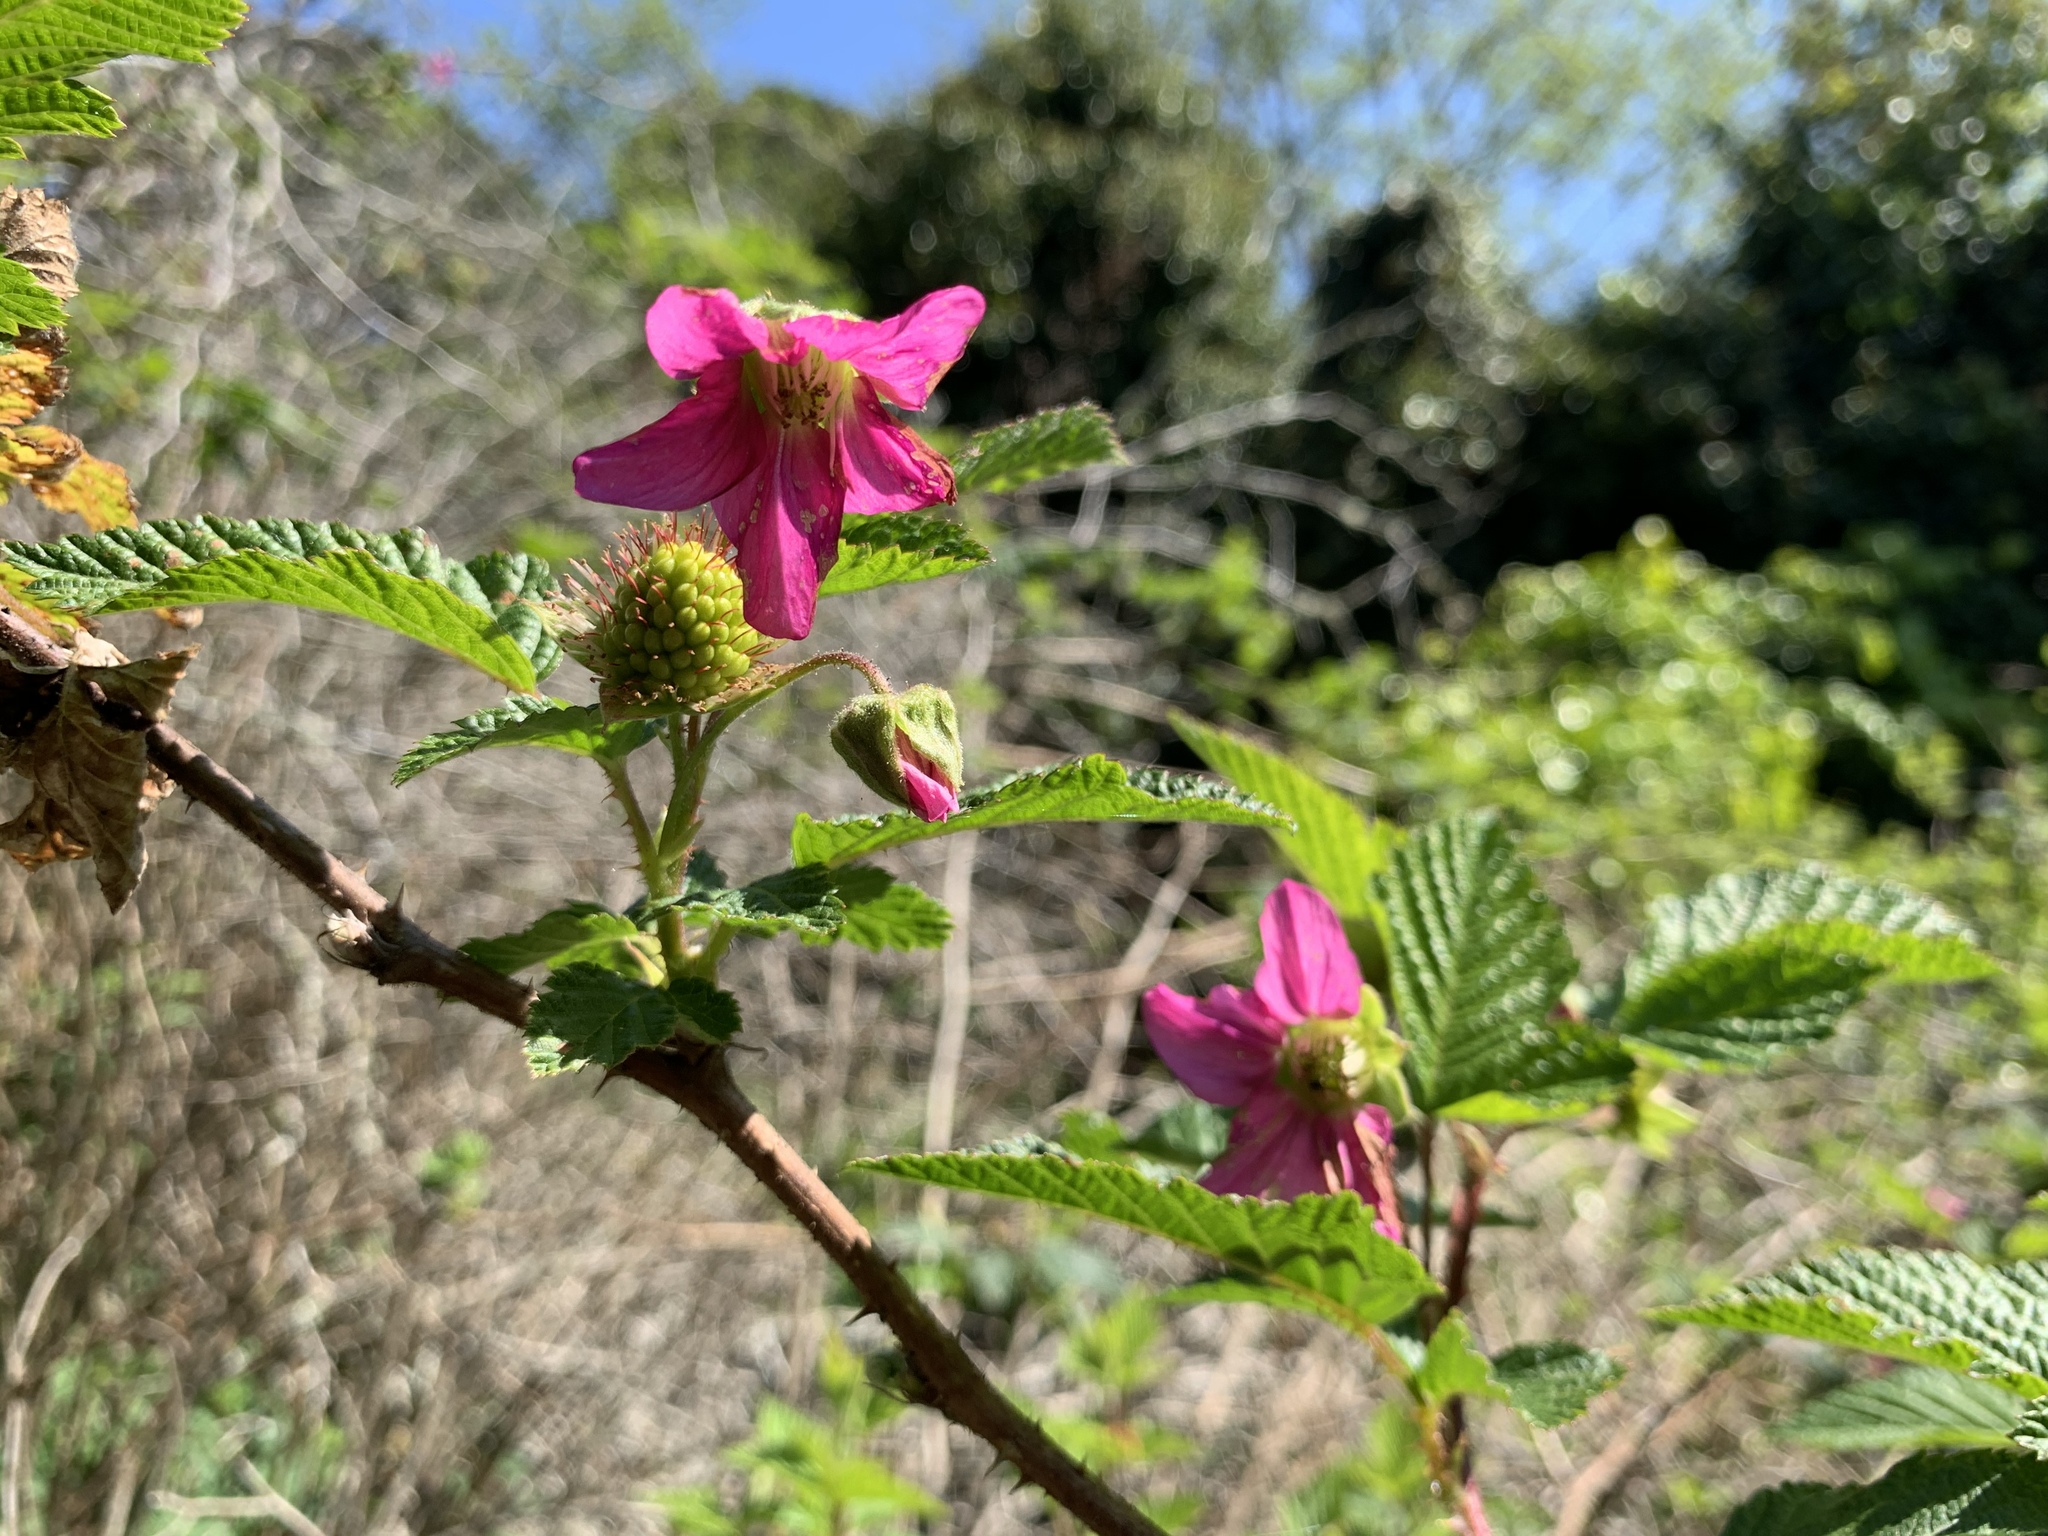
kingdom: Plantae
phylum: Tracheophyta
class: Magnoliopsida
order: Rosales
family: Rosaceae
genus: Rubus
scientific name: Rubus spectabilis
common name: Salmonberry
